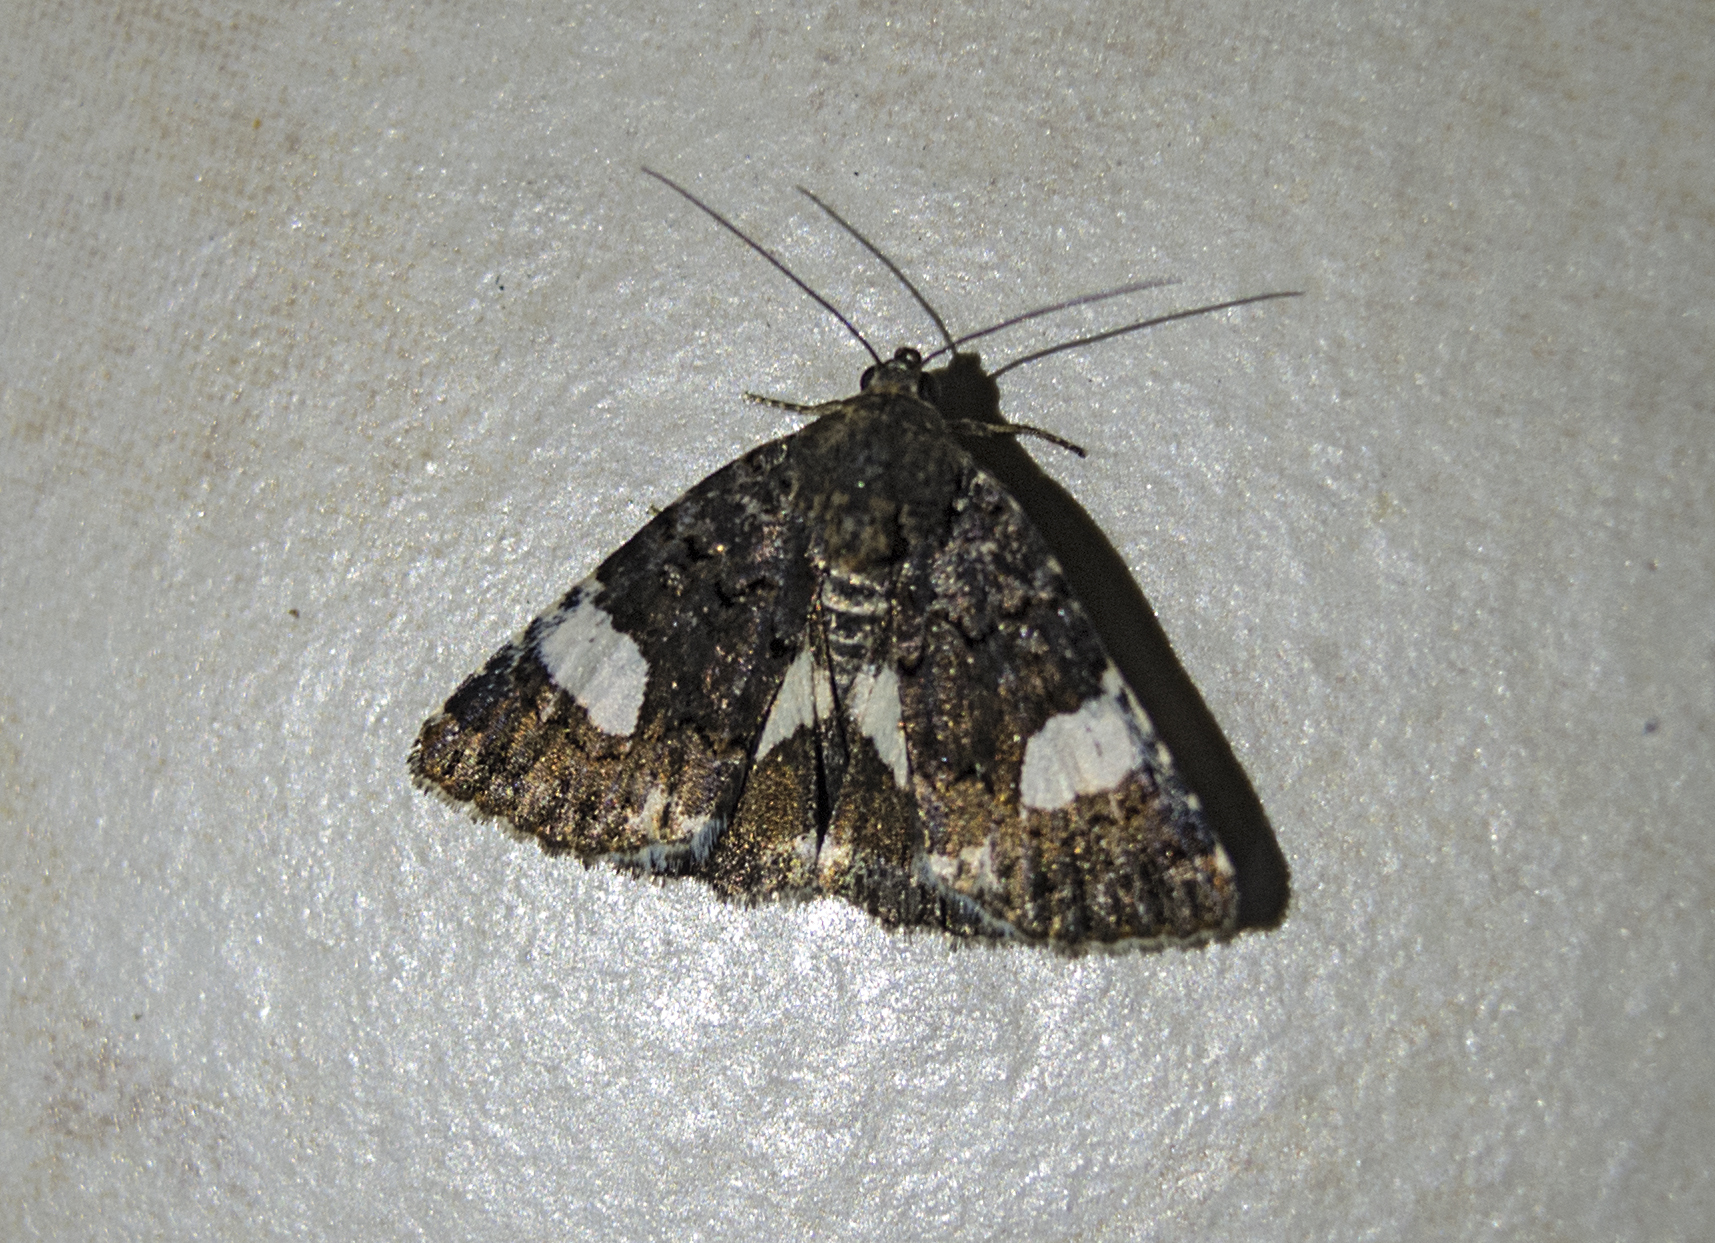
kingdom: Animalia
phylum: Arthropoda
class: Insecta
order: Lepidoptera
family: Erebidae
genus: Tyta
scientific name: Tyta luctuosa
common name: Four-spotted
